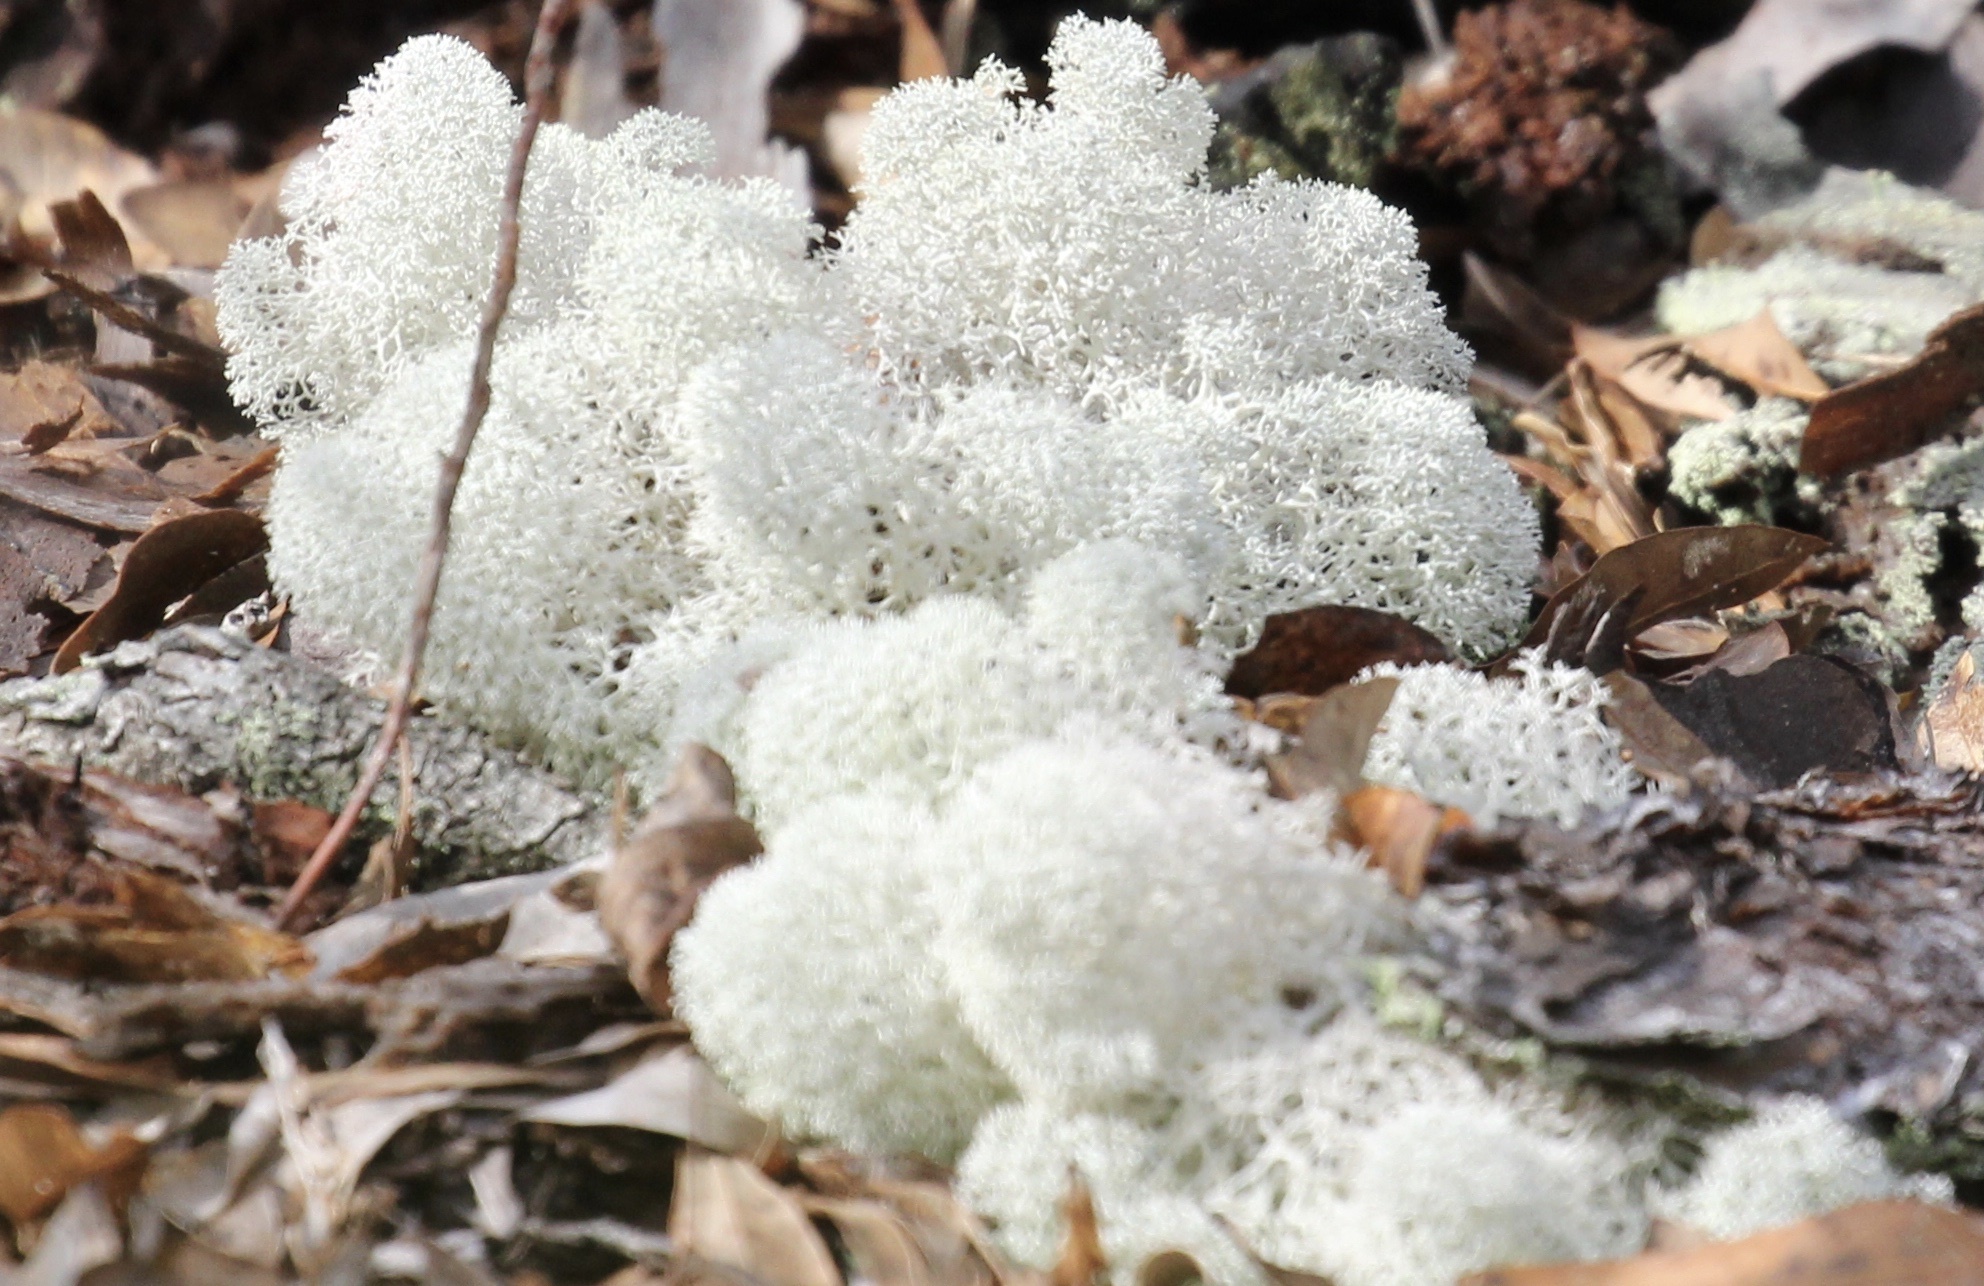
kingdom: Fungi
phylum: Ascomycota
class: Lecanoromycetes
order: Lecanorales
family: Cladoniaceae
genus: Cladonia
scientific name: Cladonia evansii
